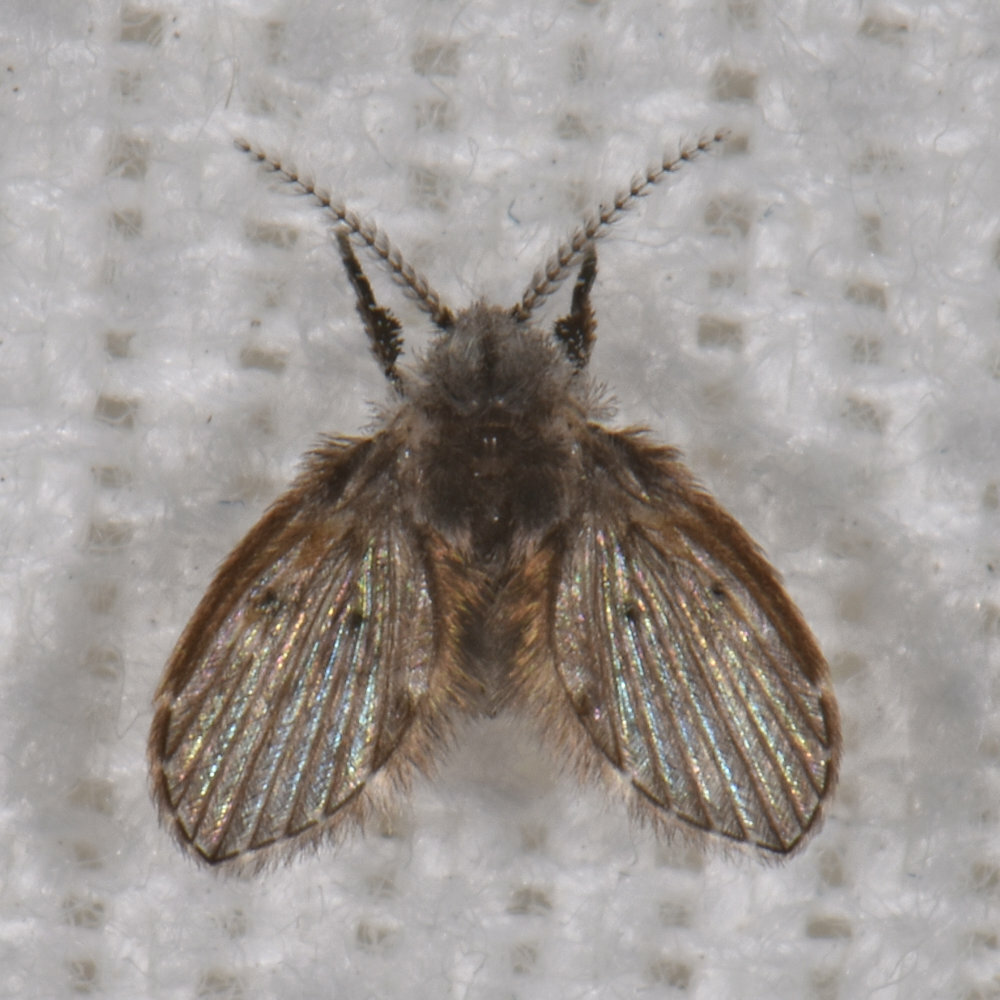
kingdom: Animalia
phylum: Arthropoda
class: Insecta
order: Diptera
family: Psychodidae
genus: Clogmia
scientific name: Clogmia albipunctatus
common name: White-spotted moth fly
